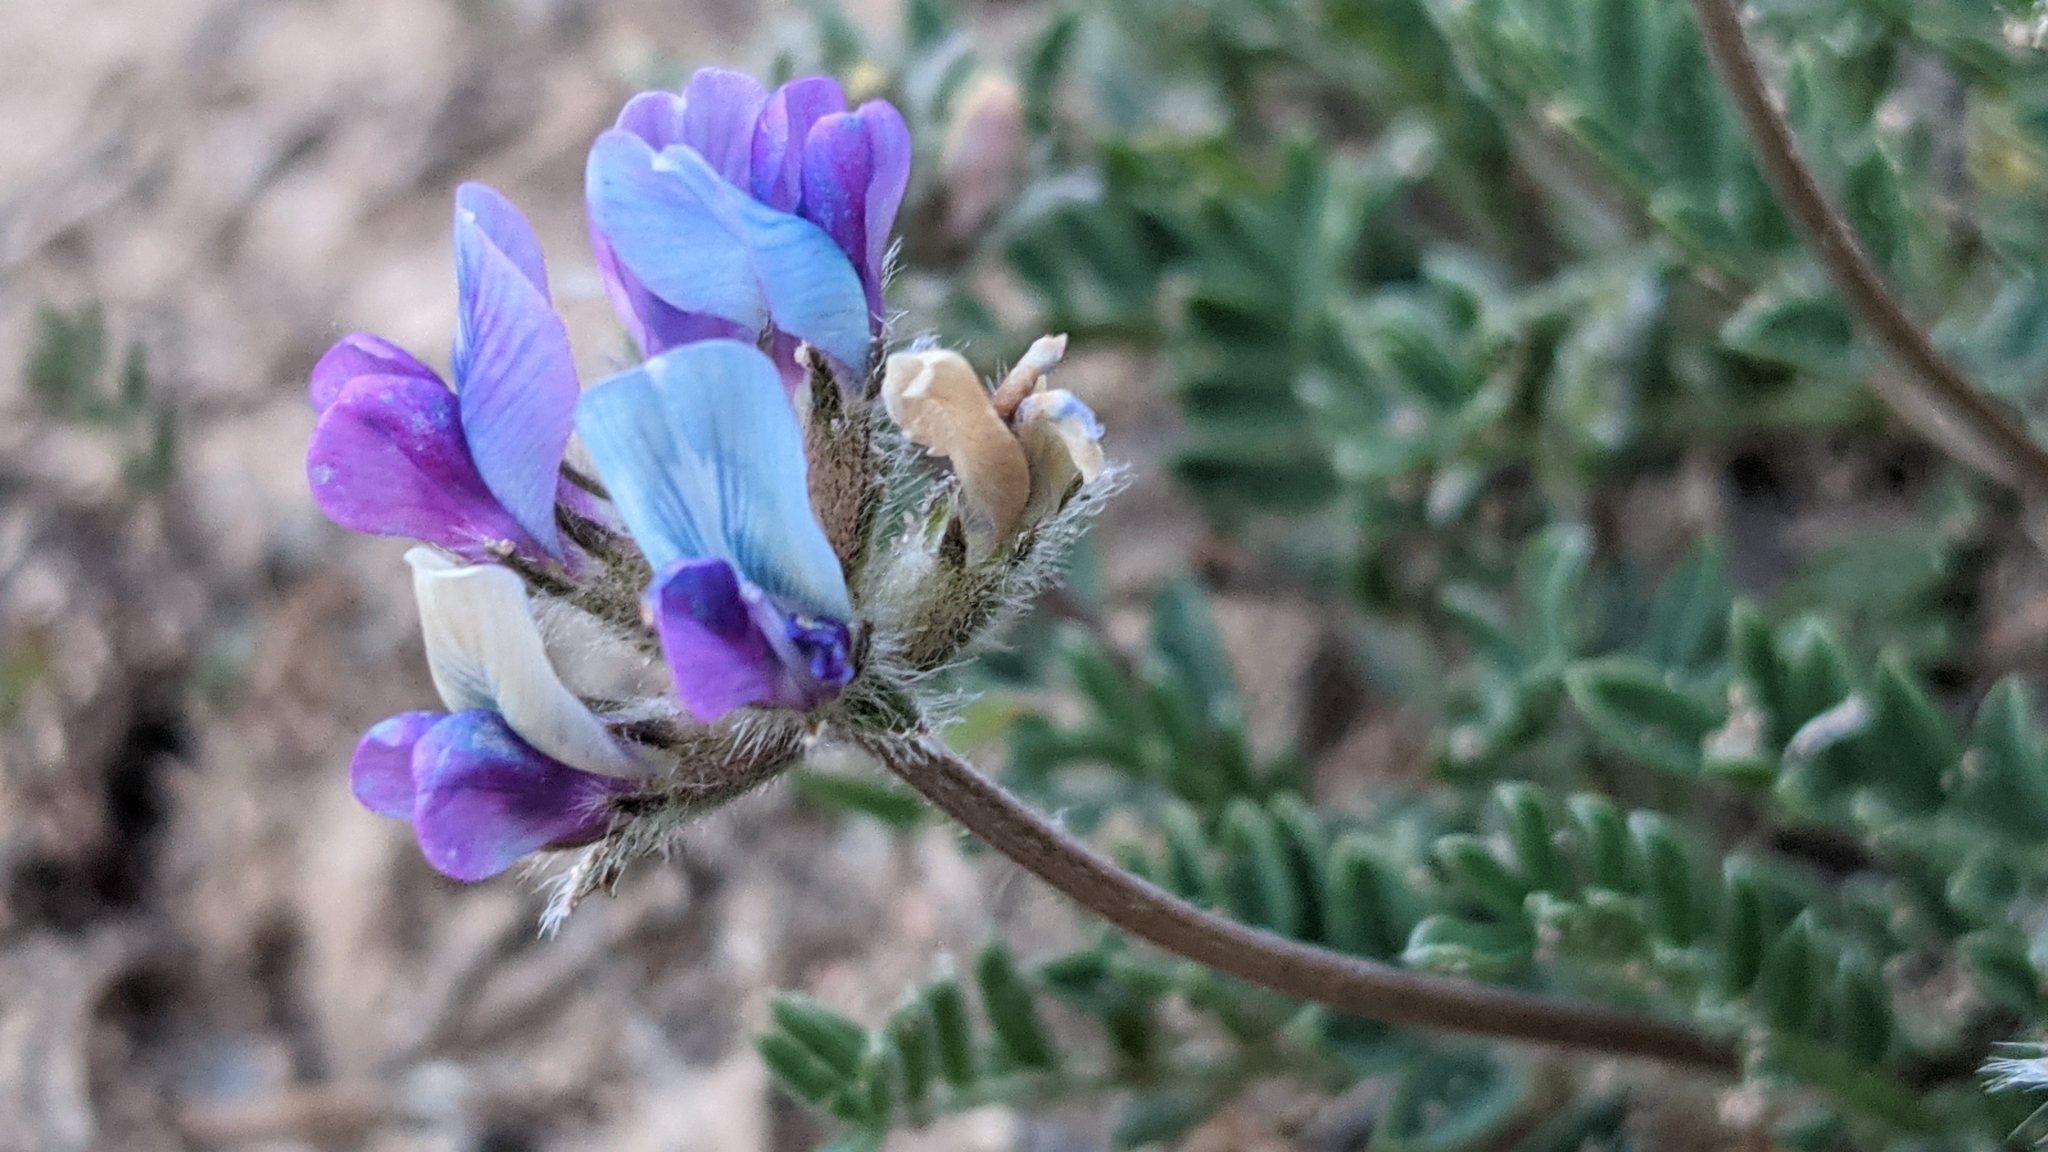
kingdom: Plantae
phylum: Tracheophyta
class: Magnoliopsida
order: Fabales
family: Fabaceae
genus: Oxytropis
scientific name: Oxytropis oreophila
